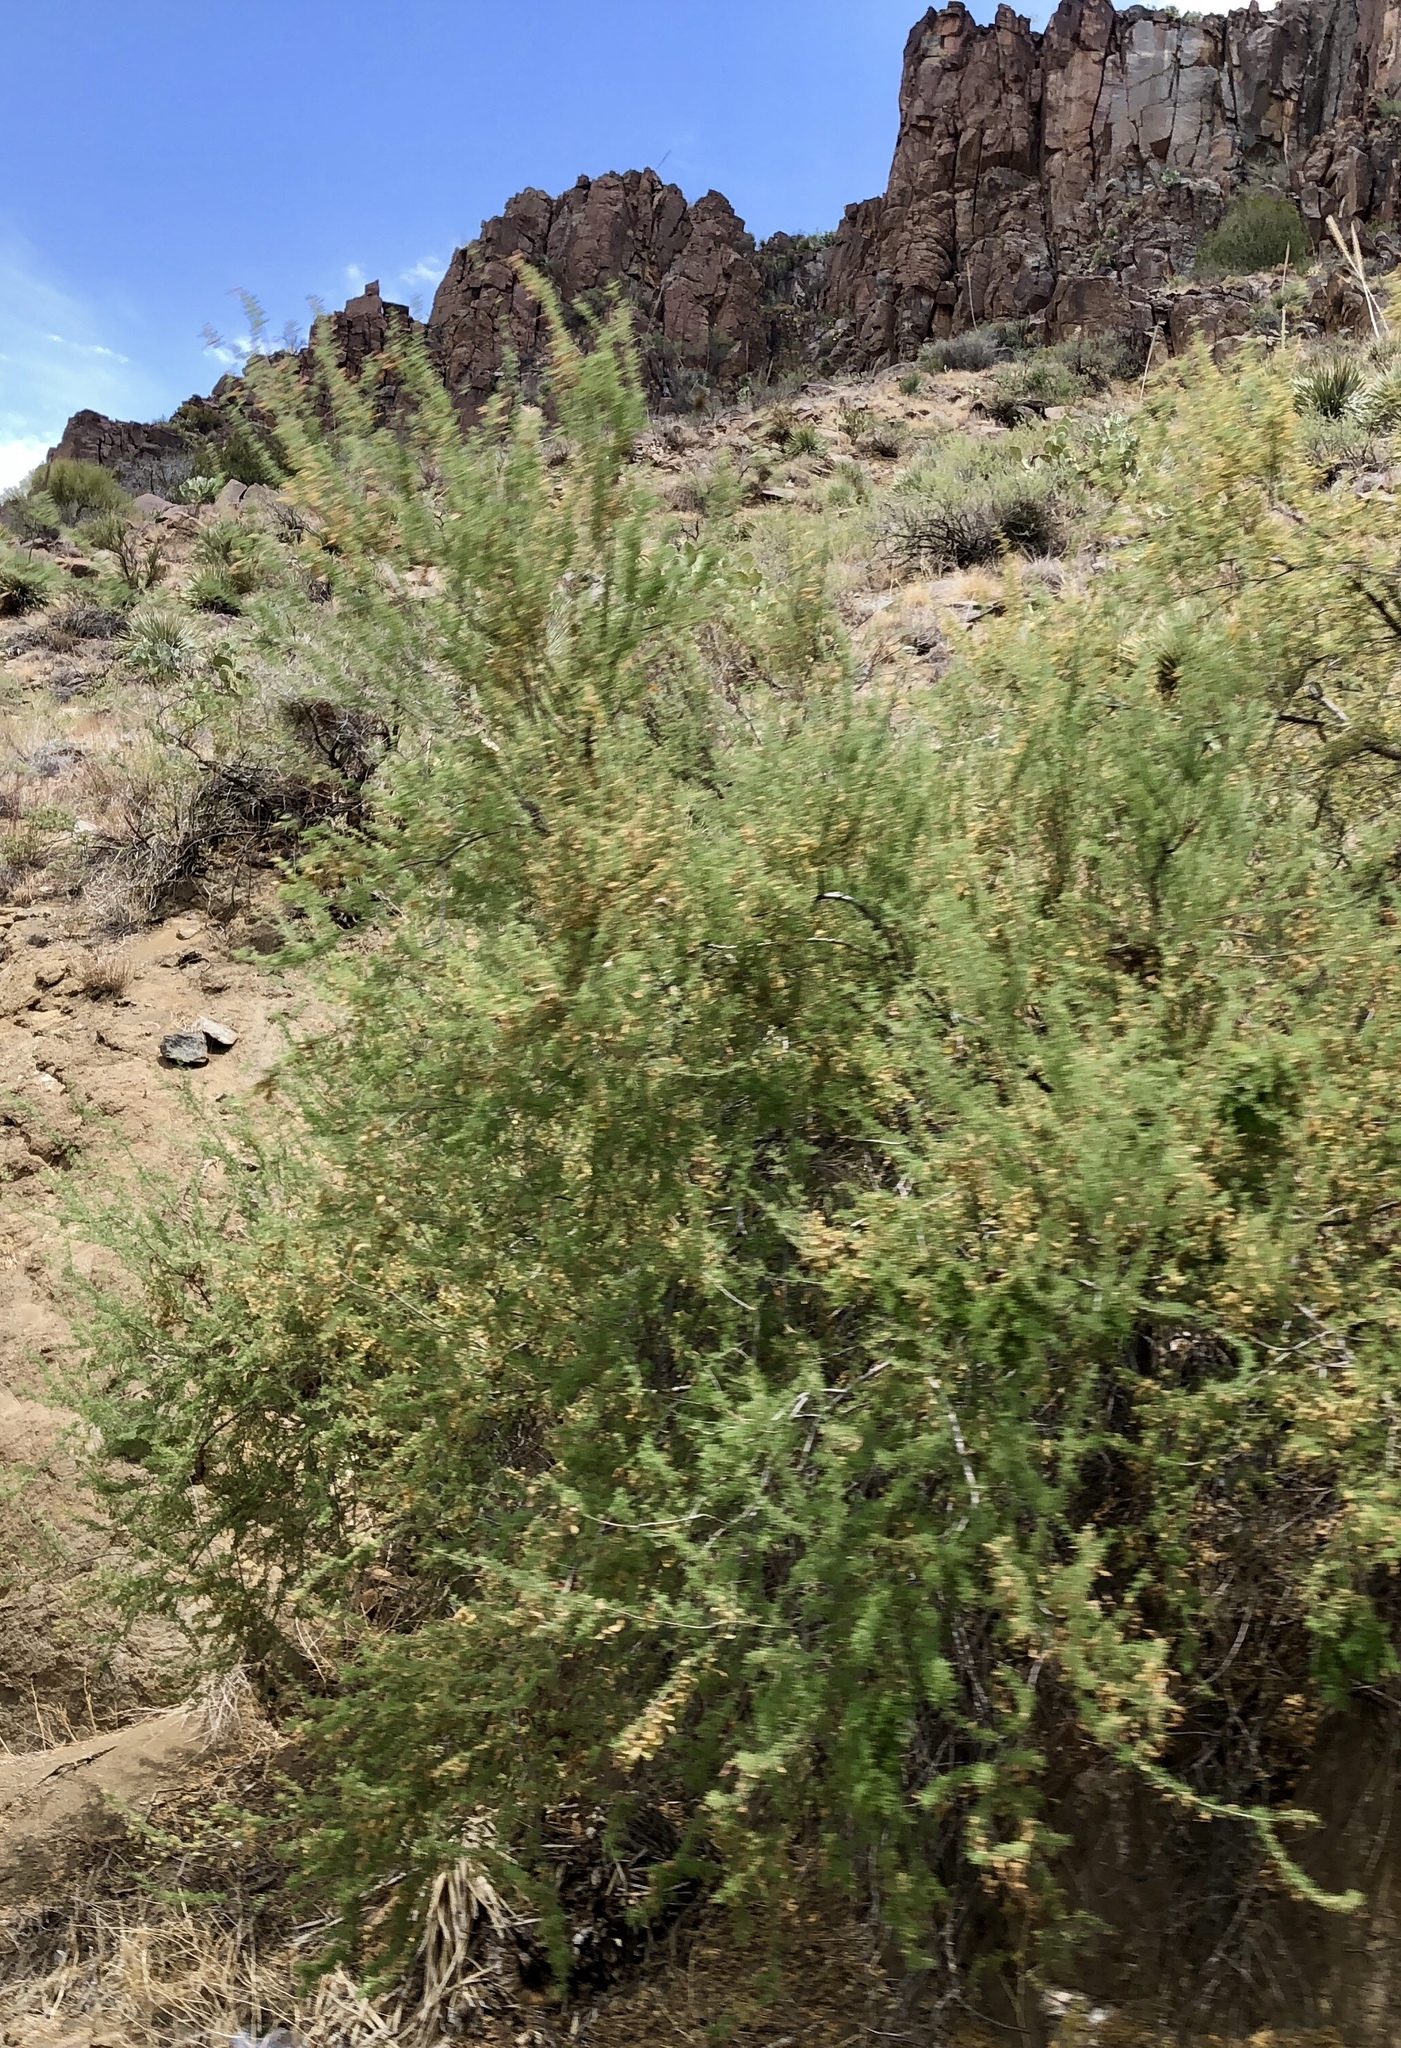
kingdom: Plantae
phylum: Tracheophyta
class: Magnoliopsida
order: Fabales
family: Fabaceae
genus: Senegalia
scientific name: Senegalia greggii
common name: Texas-mimosa
